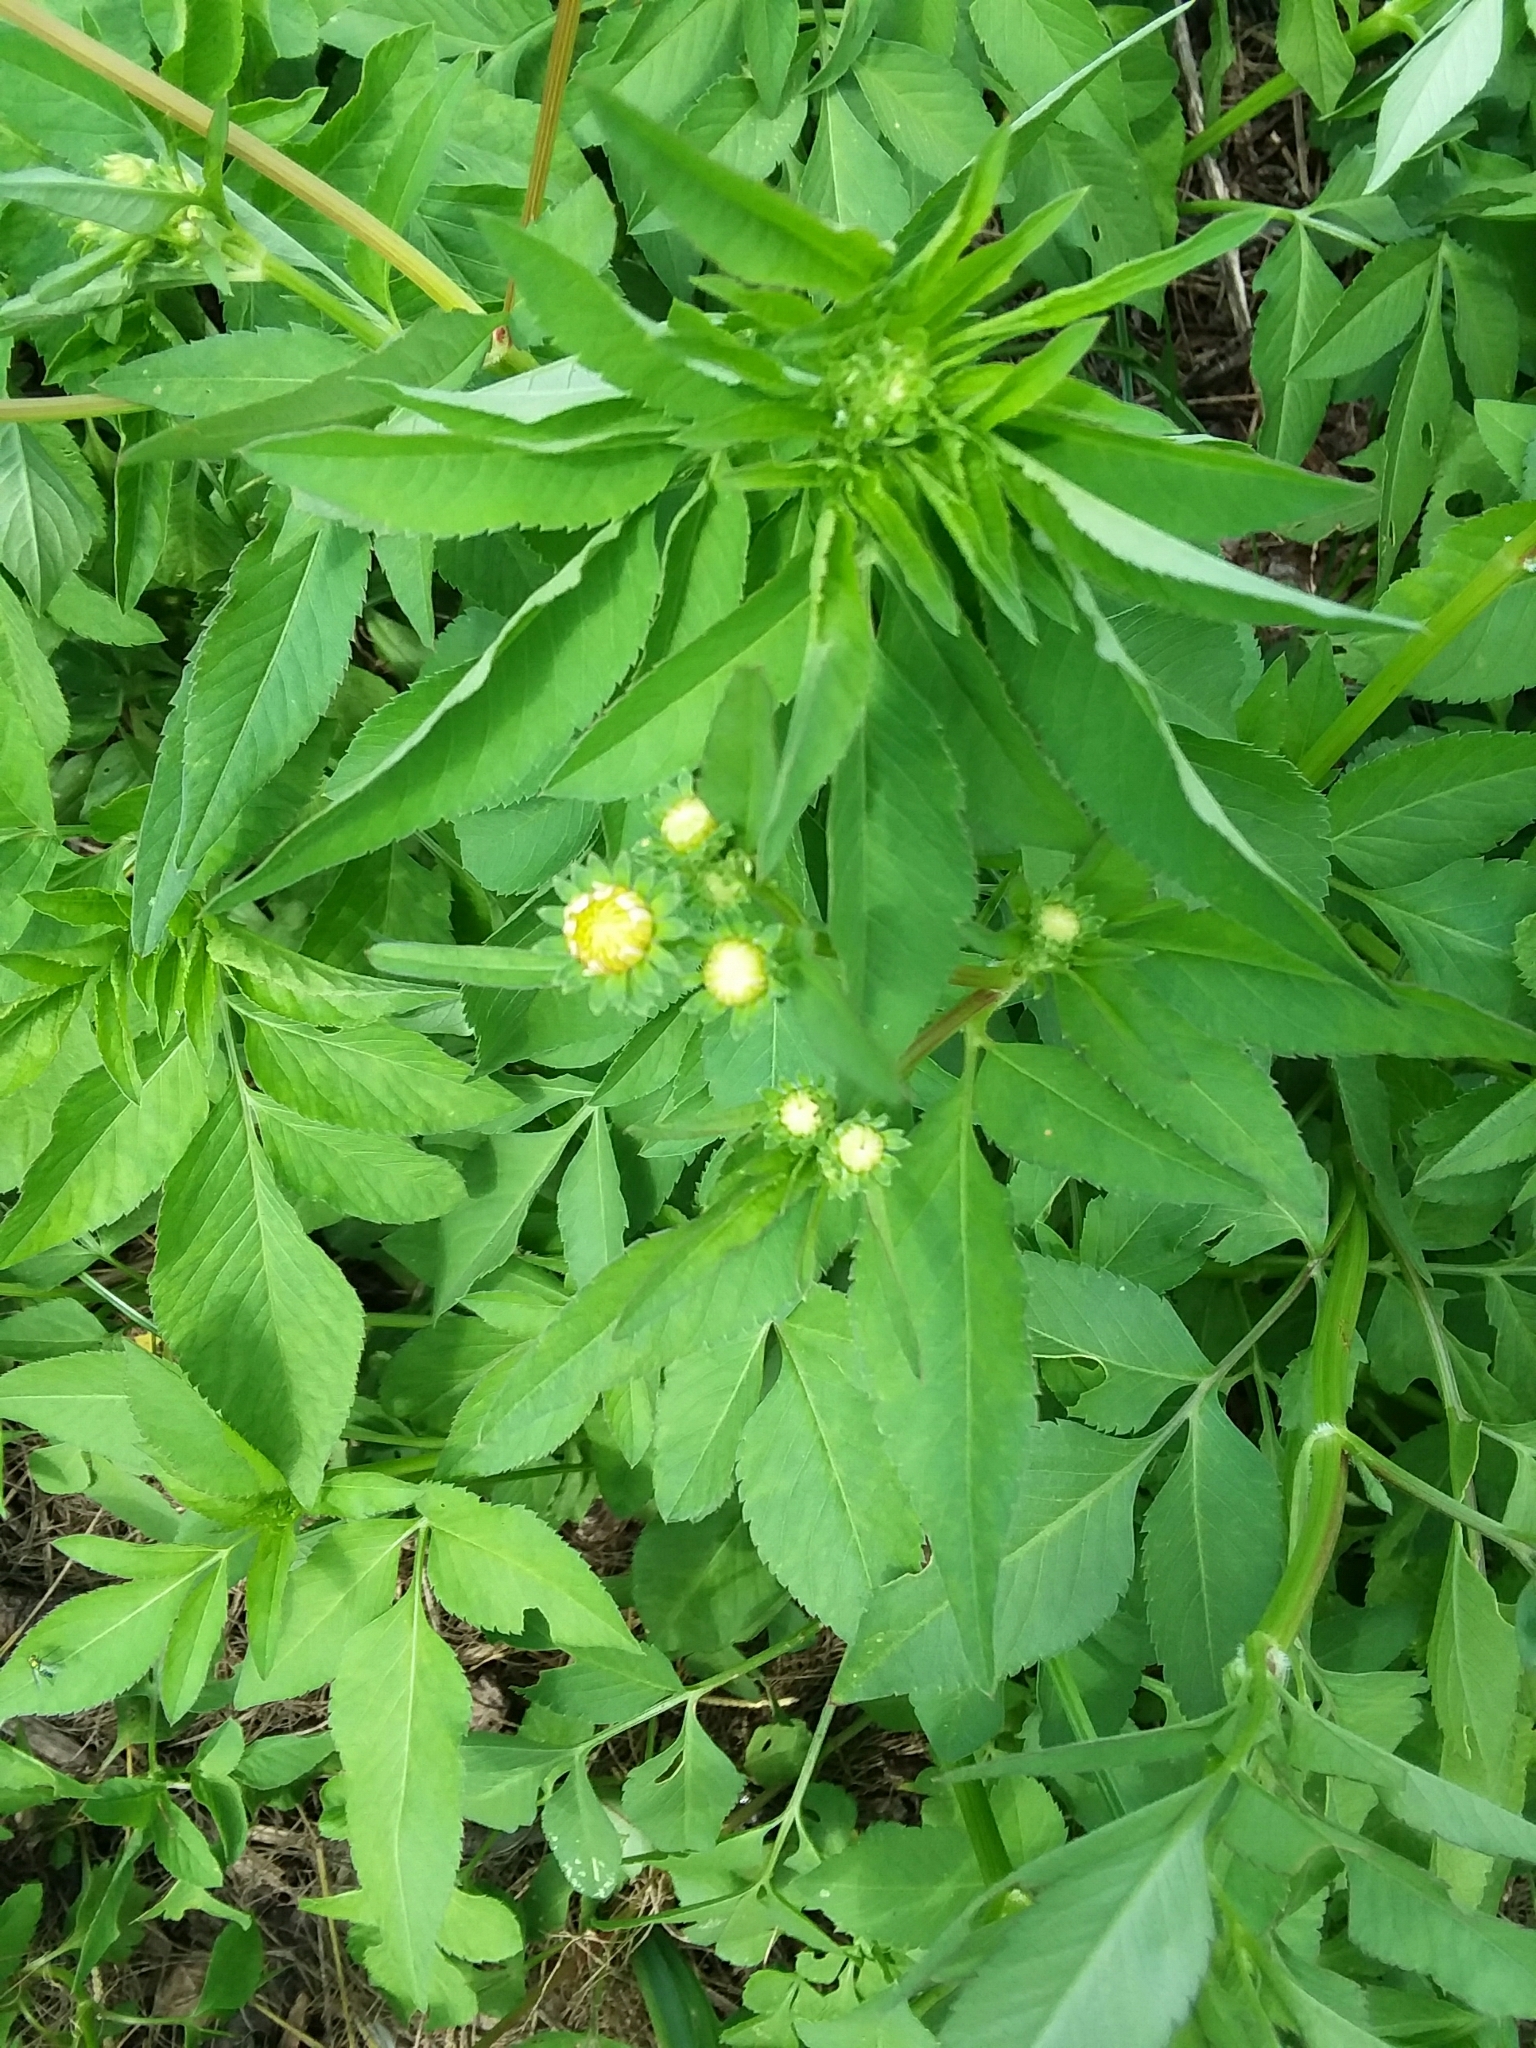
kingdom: Plantae
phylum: Tracheophyta
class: Magnoliopsida
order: Asterales
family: Asteraceae
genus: Bidens
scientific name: Bidens alba
